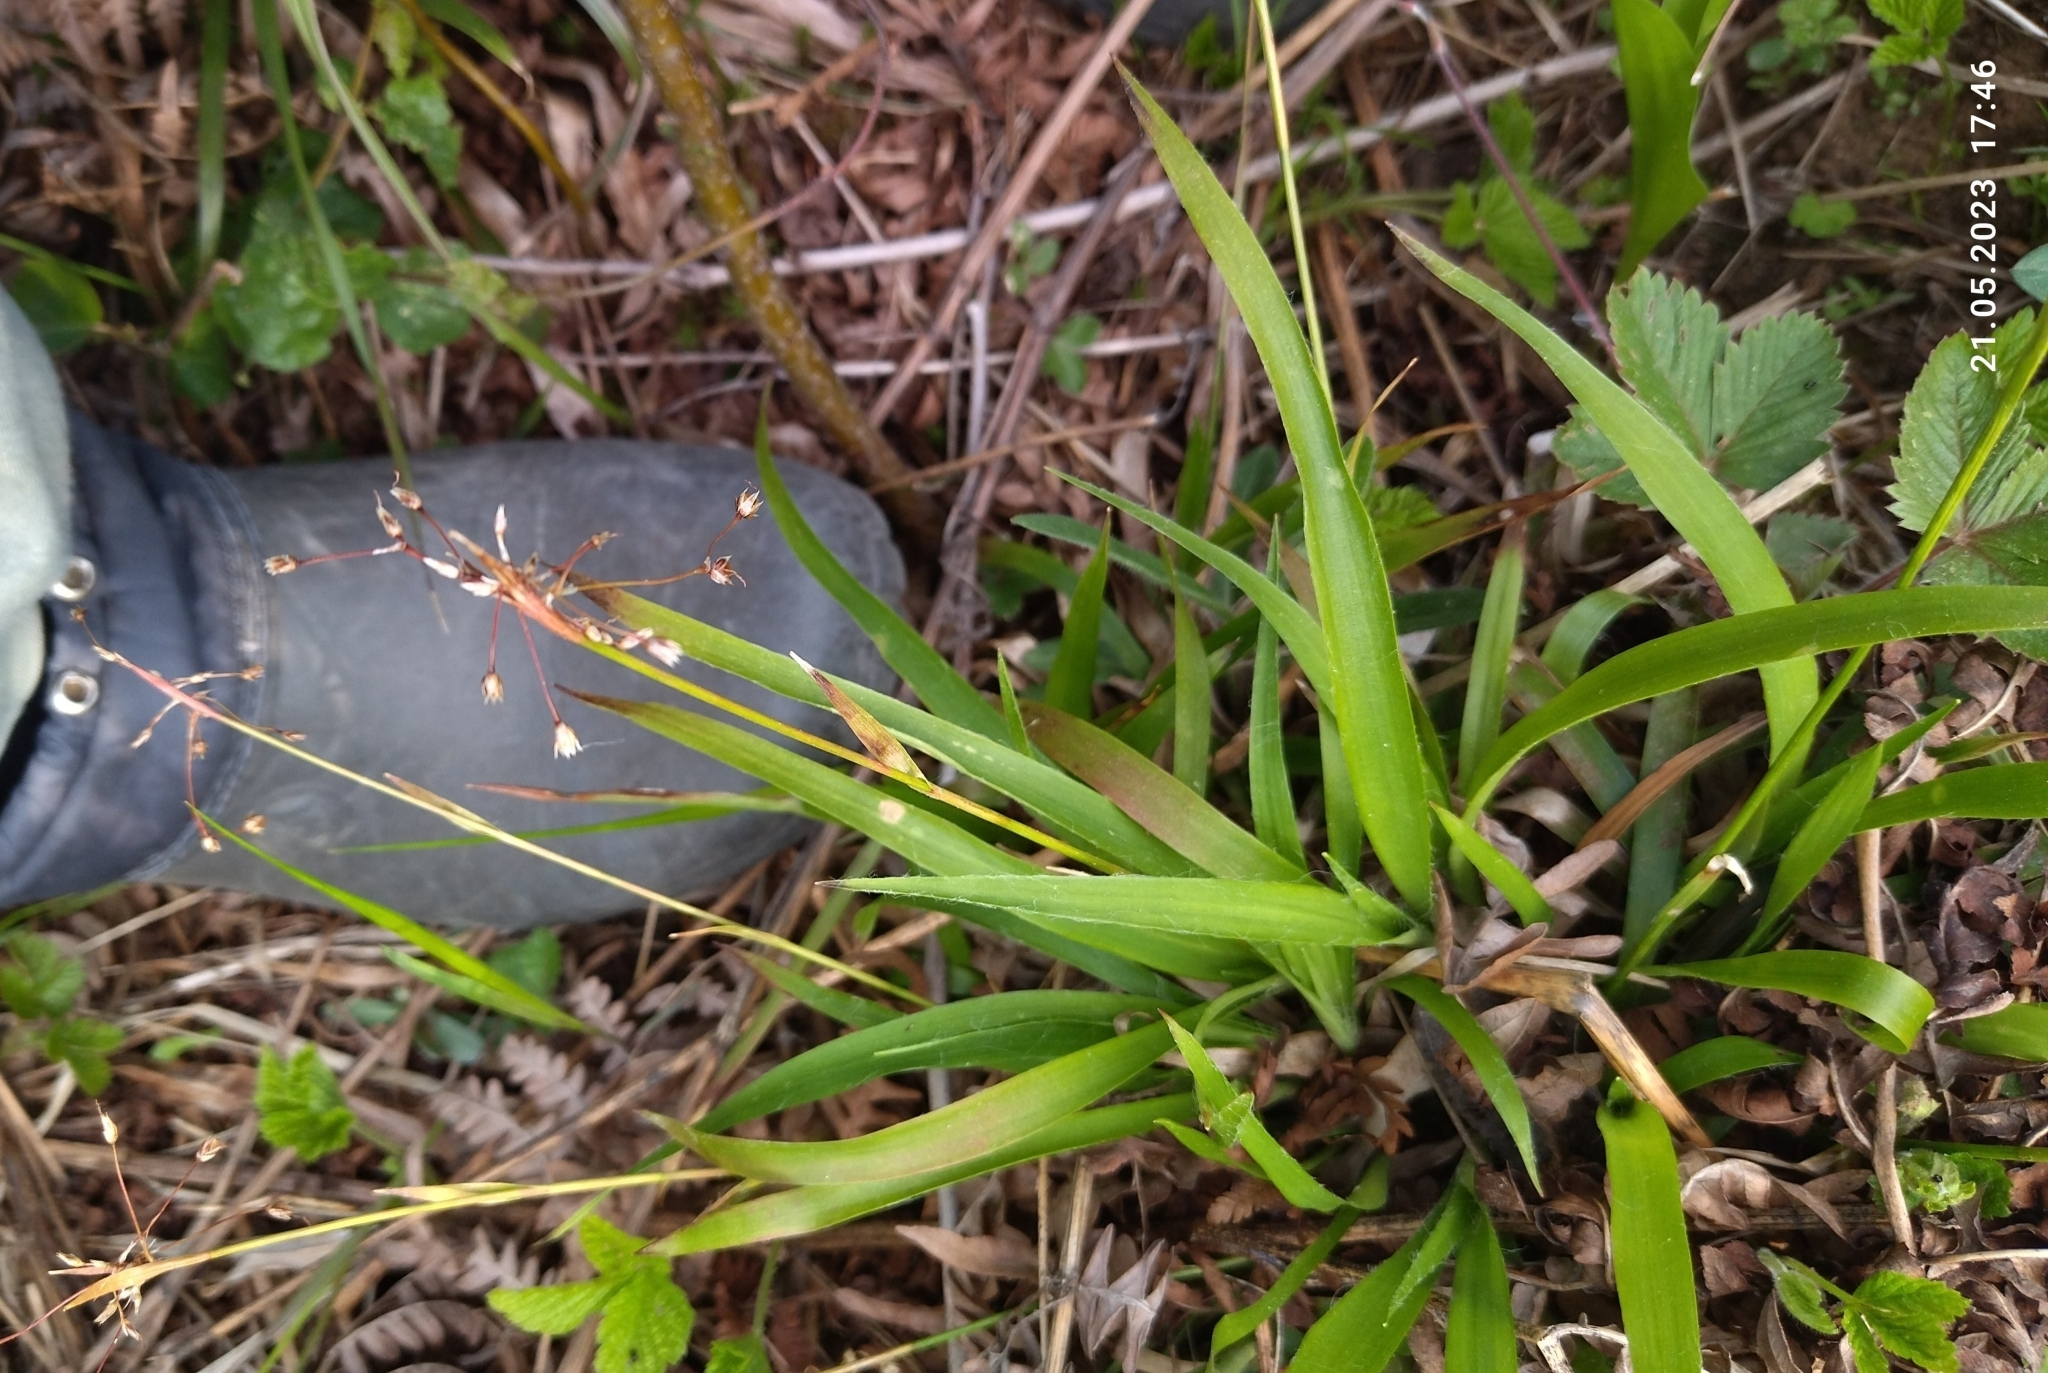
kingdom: Plantae
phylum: Tracheophyta
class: Liliopsida
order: Poales
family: Juncaceae
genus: Luzula
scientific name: Luzula pilosa
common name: Hairy wood-rush
